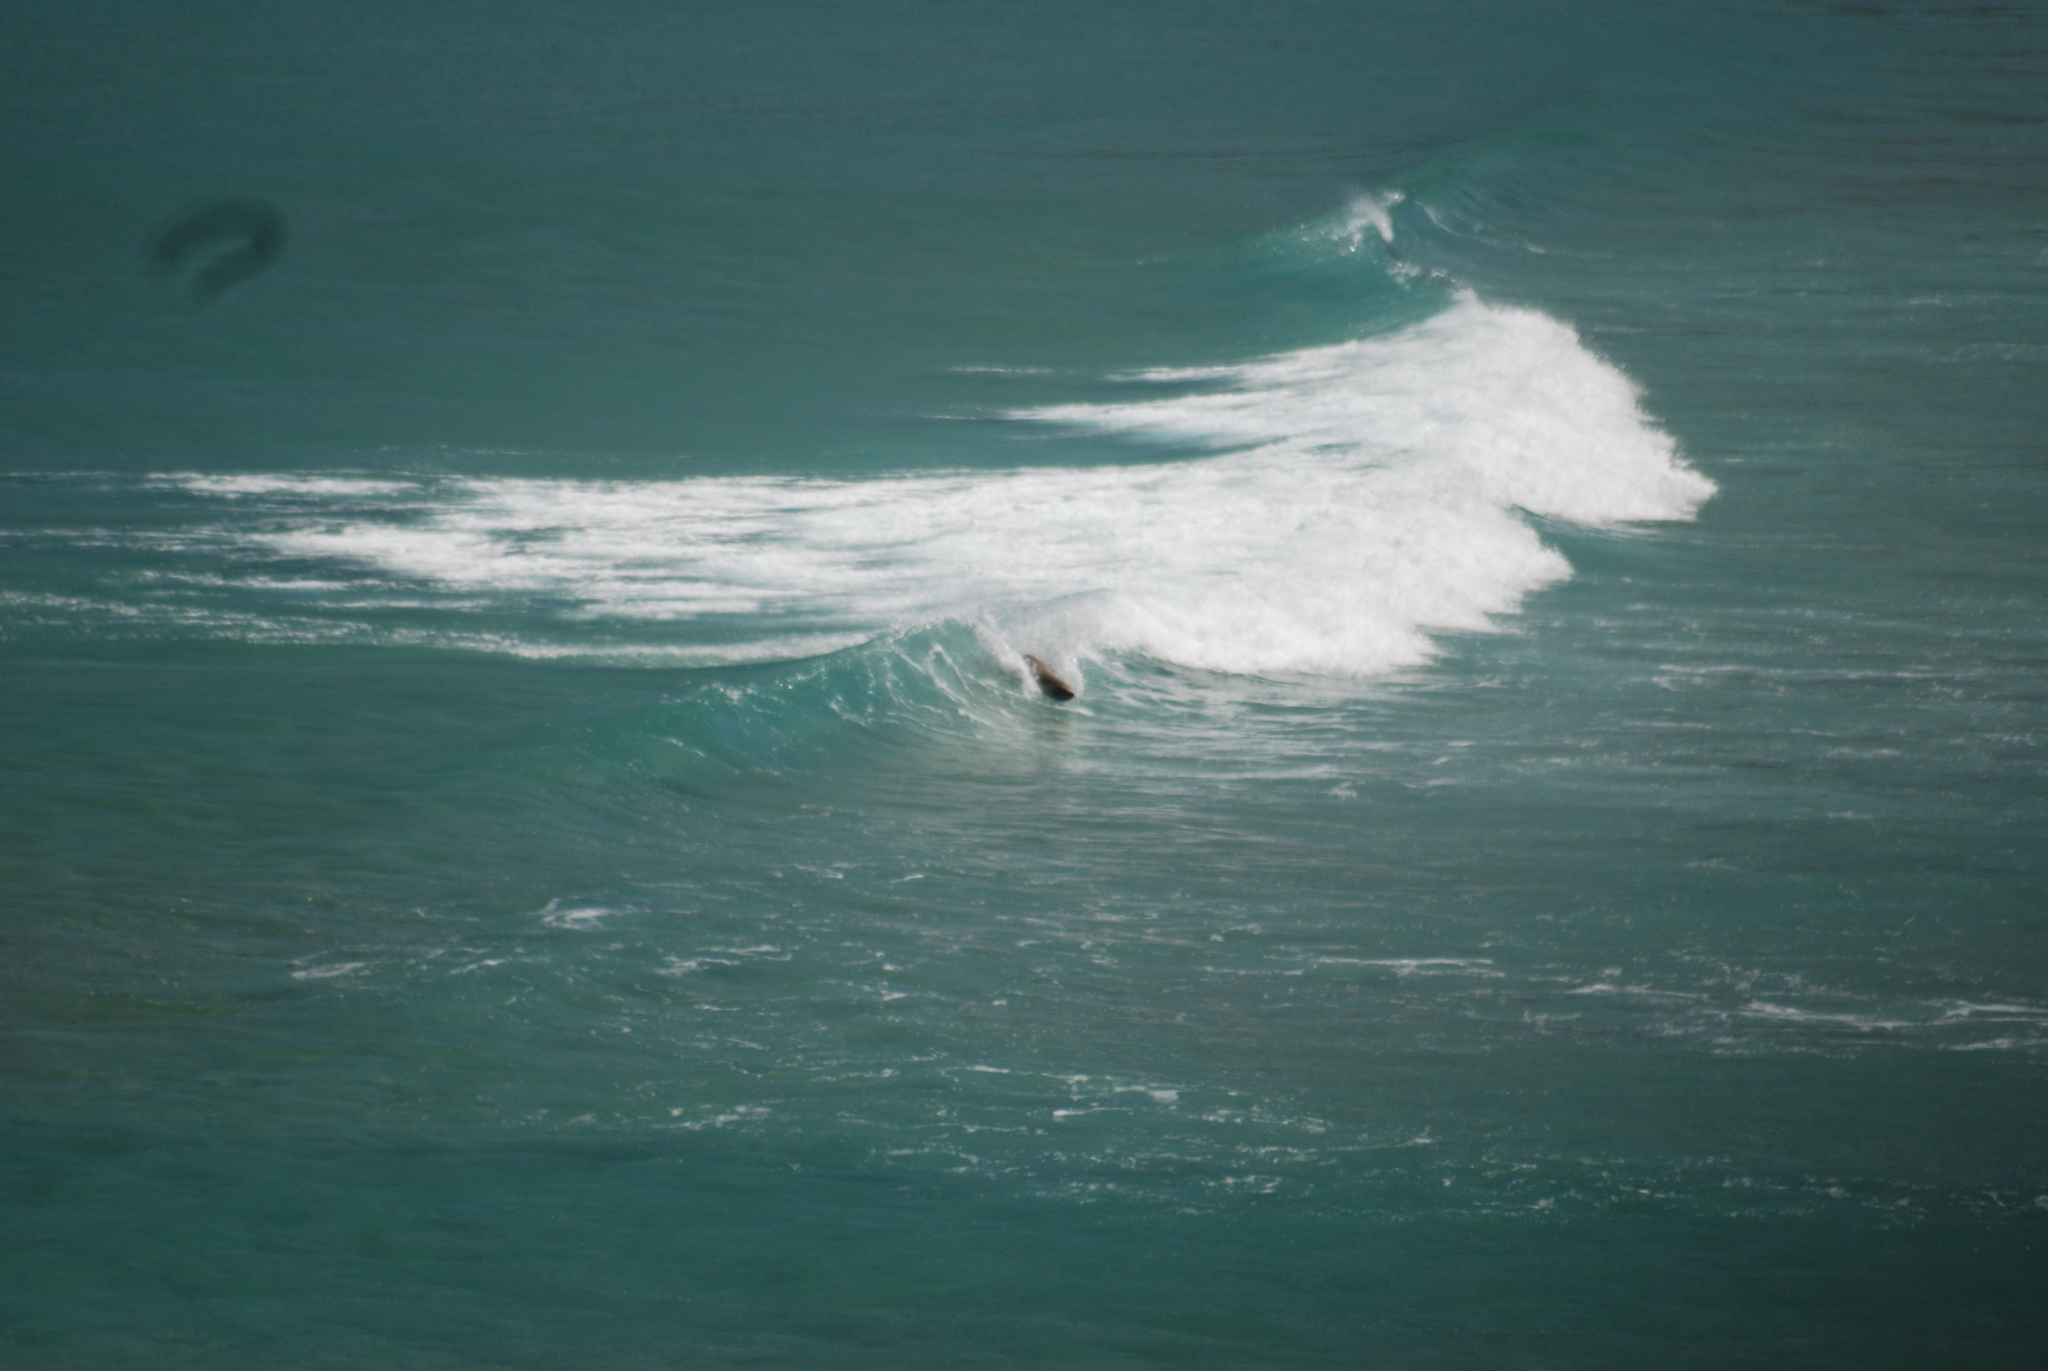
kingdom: Animalia
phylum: Chordata
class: Mammalia
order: Carnivora
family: Otariidae
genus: Phocarctos
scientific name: Phocarctos hookeri
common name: New zealand sea lion
